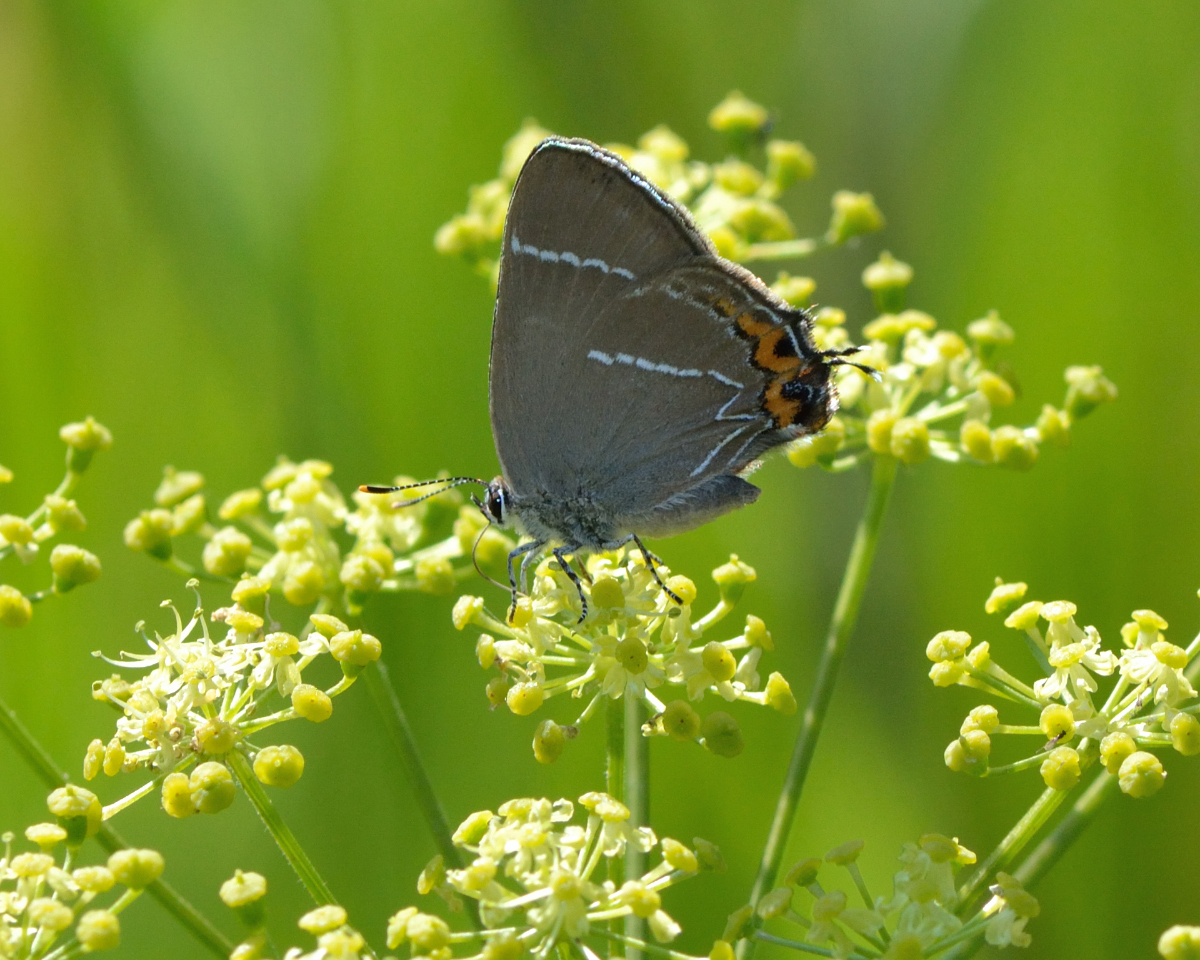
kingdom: Animalia
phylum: Arthropoda
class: Insecta
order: Lepidoptera
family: Lycaenidae
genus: Satyrium
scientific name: Satyrium w-album
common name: White-letter hairstreak
